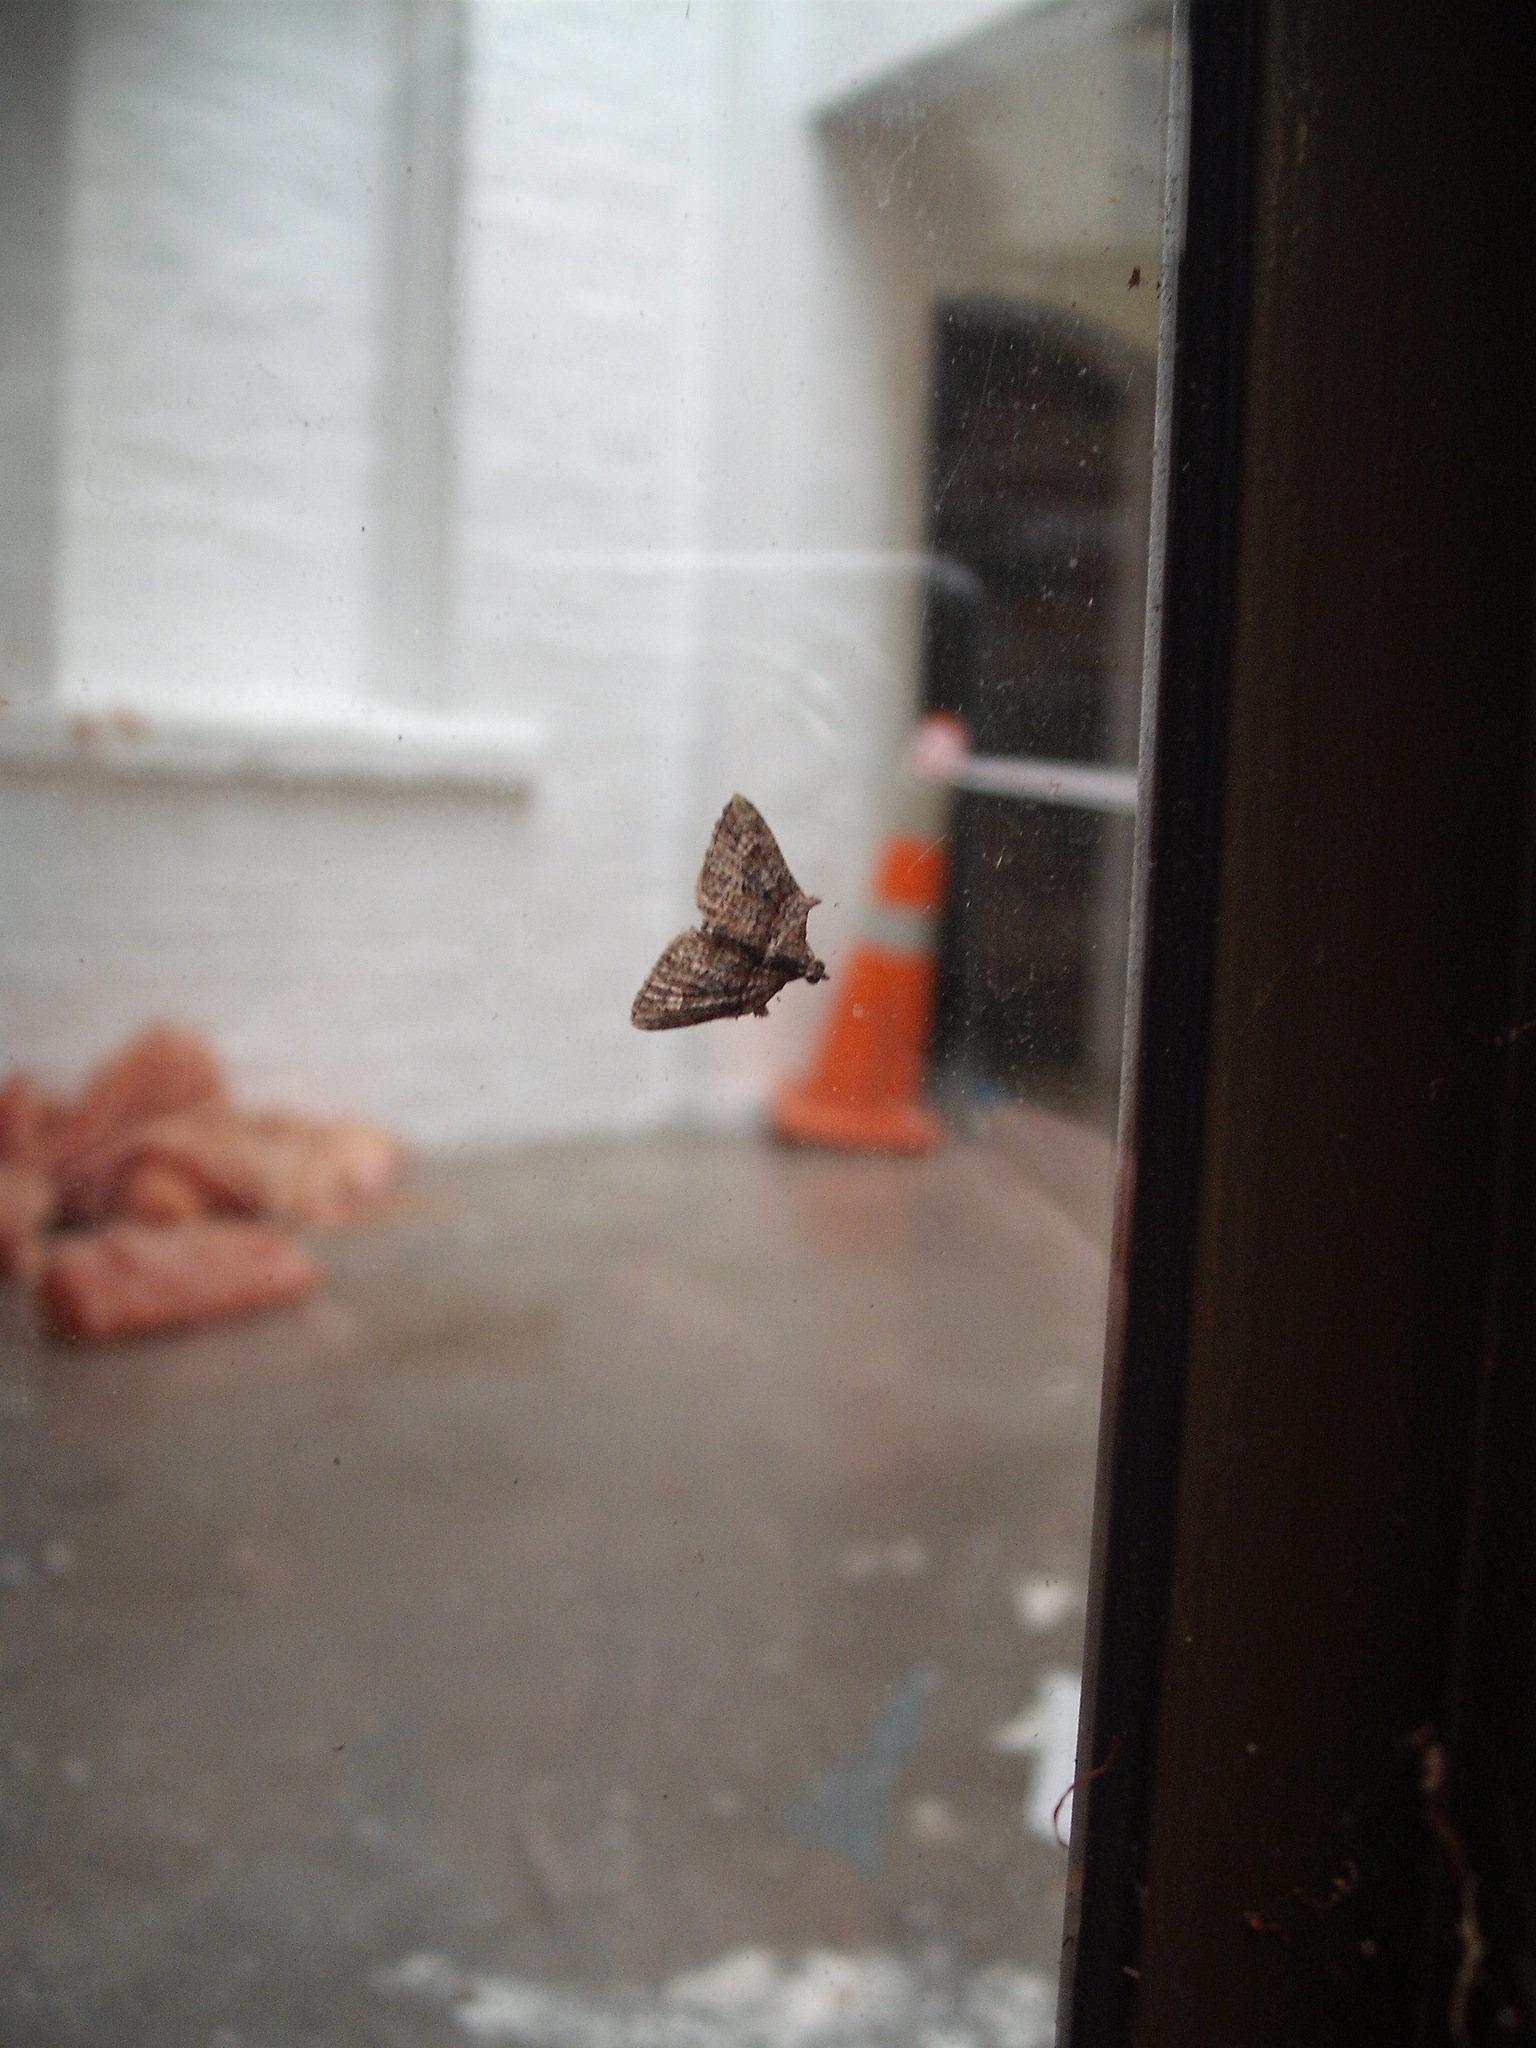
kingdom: Animalia
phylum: Arthropoda
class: Insecta
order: Lepidoptera
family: Geometridae
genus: Phrissogonus
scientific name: Phrissogonus laticostata
